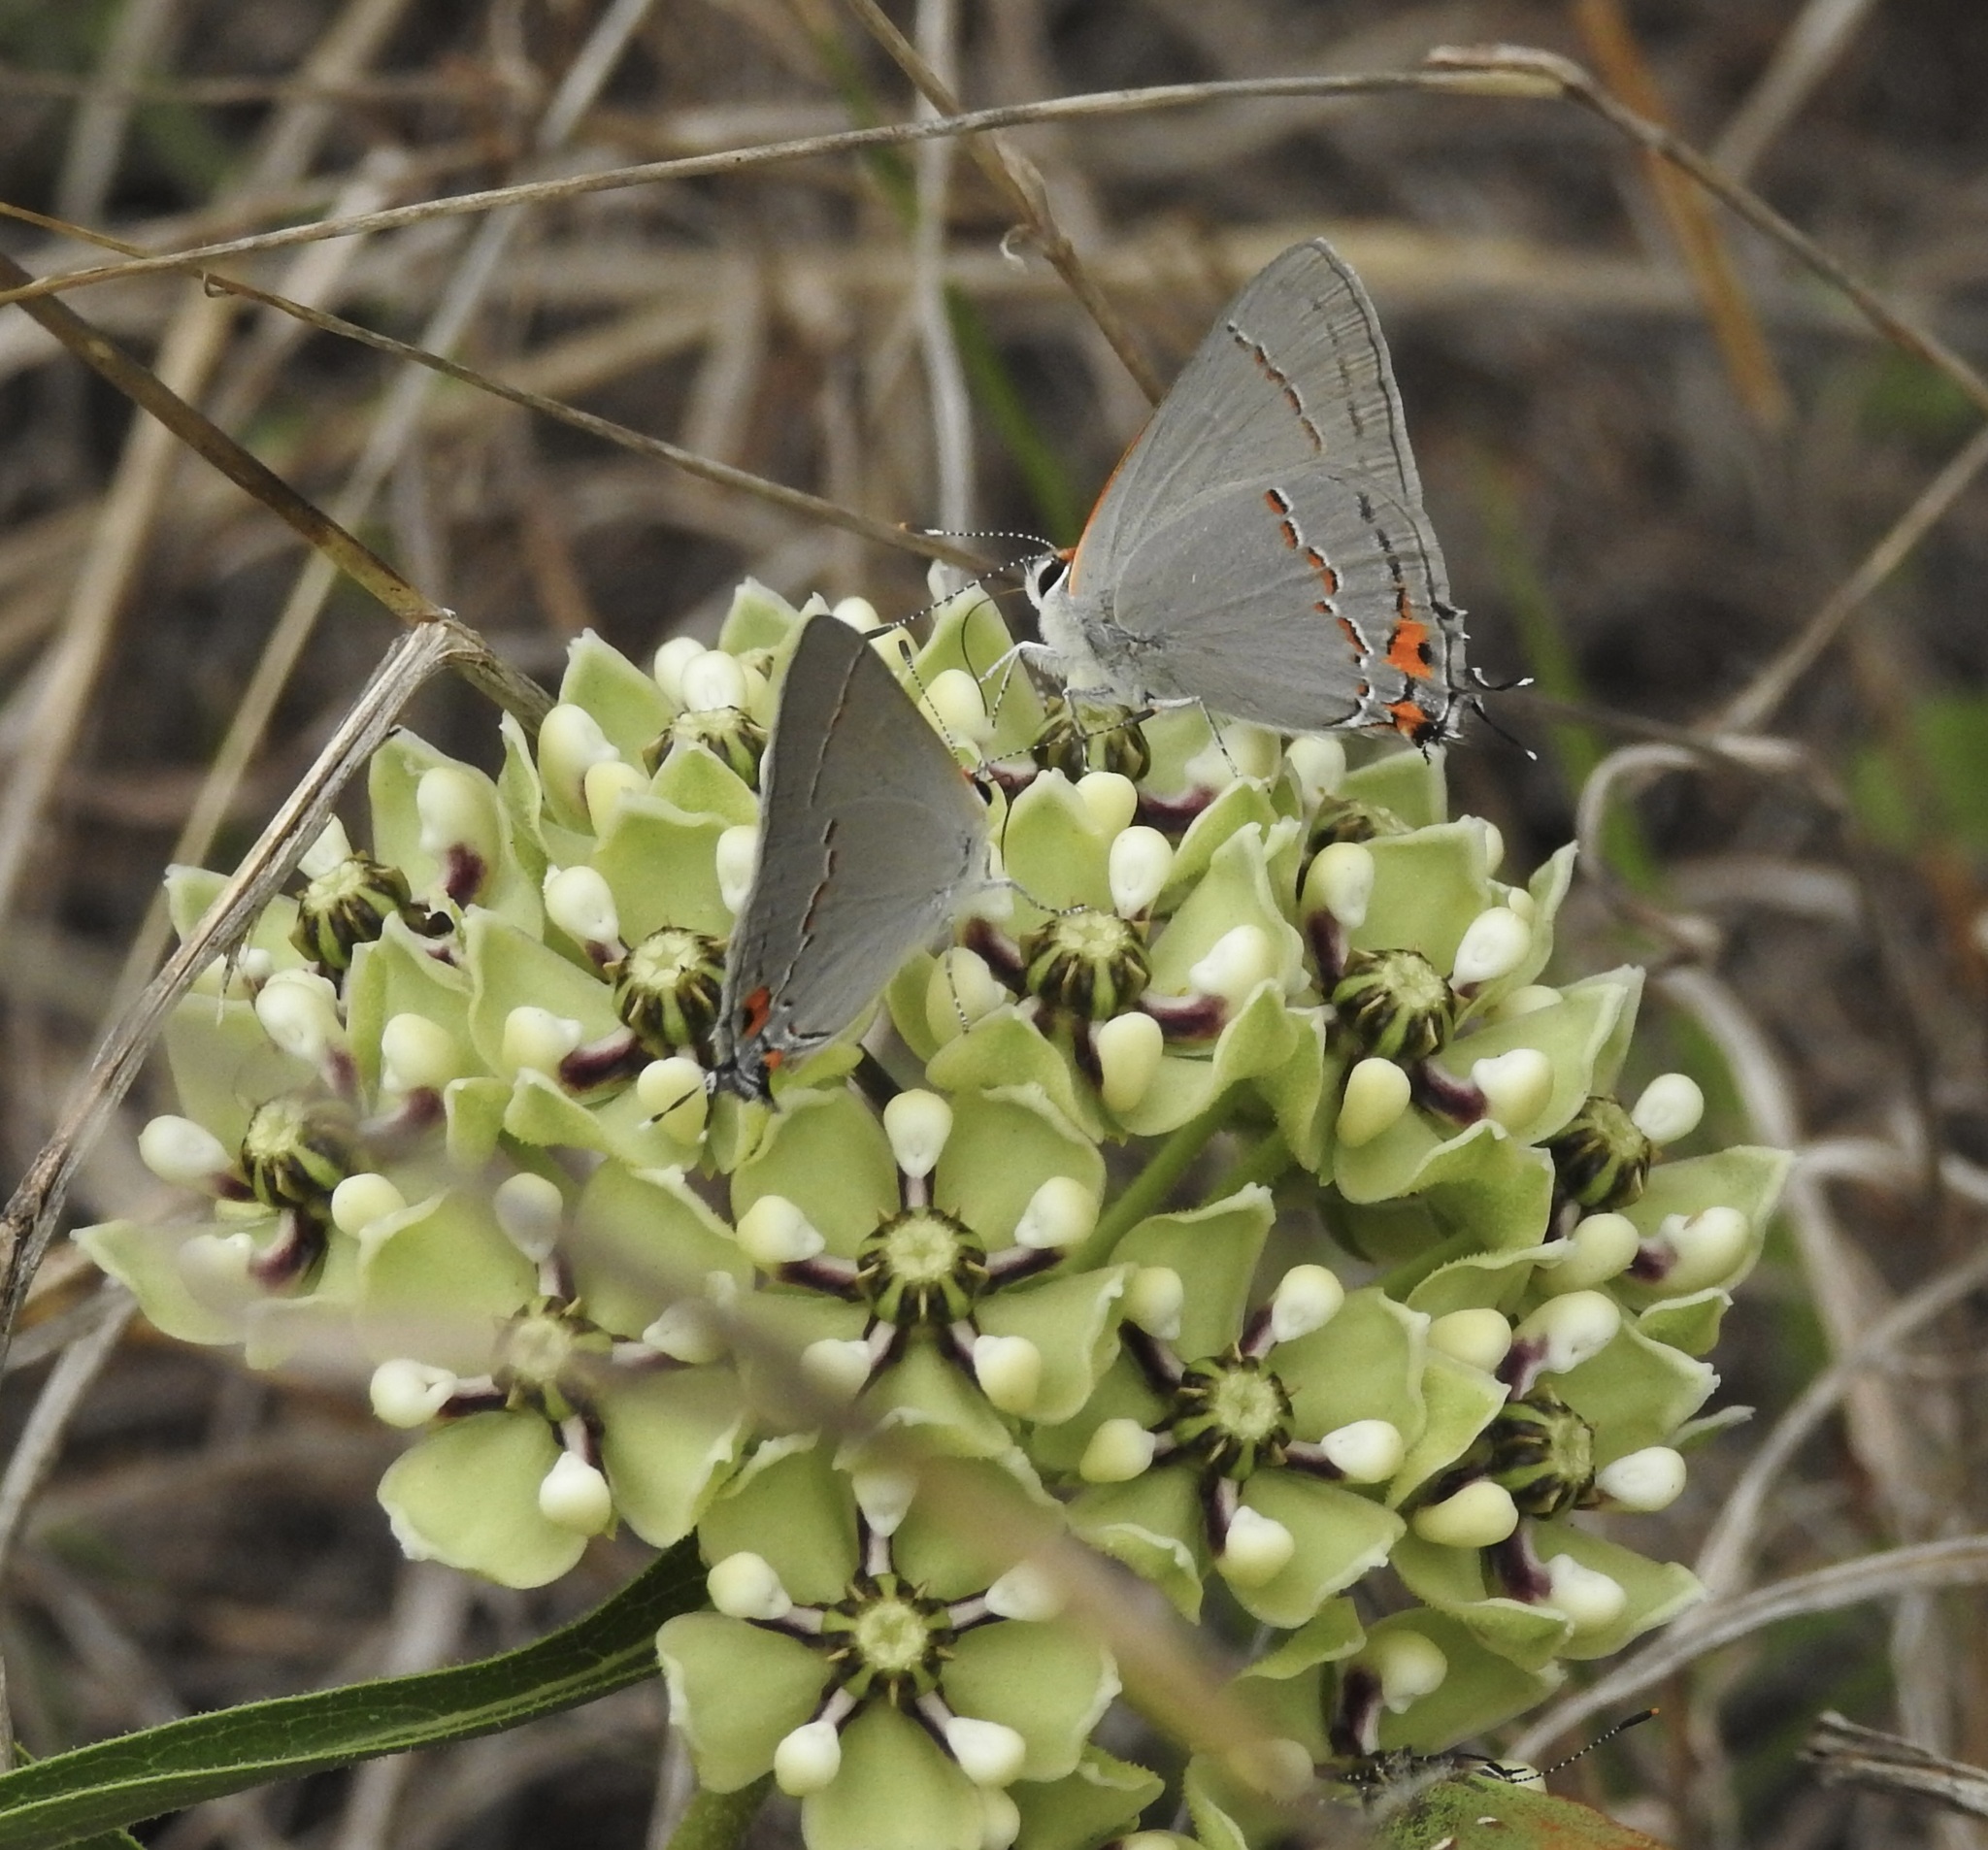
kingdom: Animalia
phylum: Arthropoda
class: Insecta
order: Lepidoptera
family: Lycaenidae
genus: Strymon
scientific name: Strymon melinus
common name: Gray hairstreak
